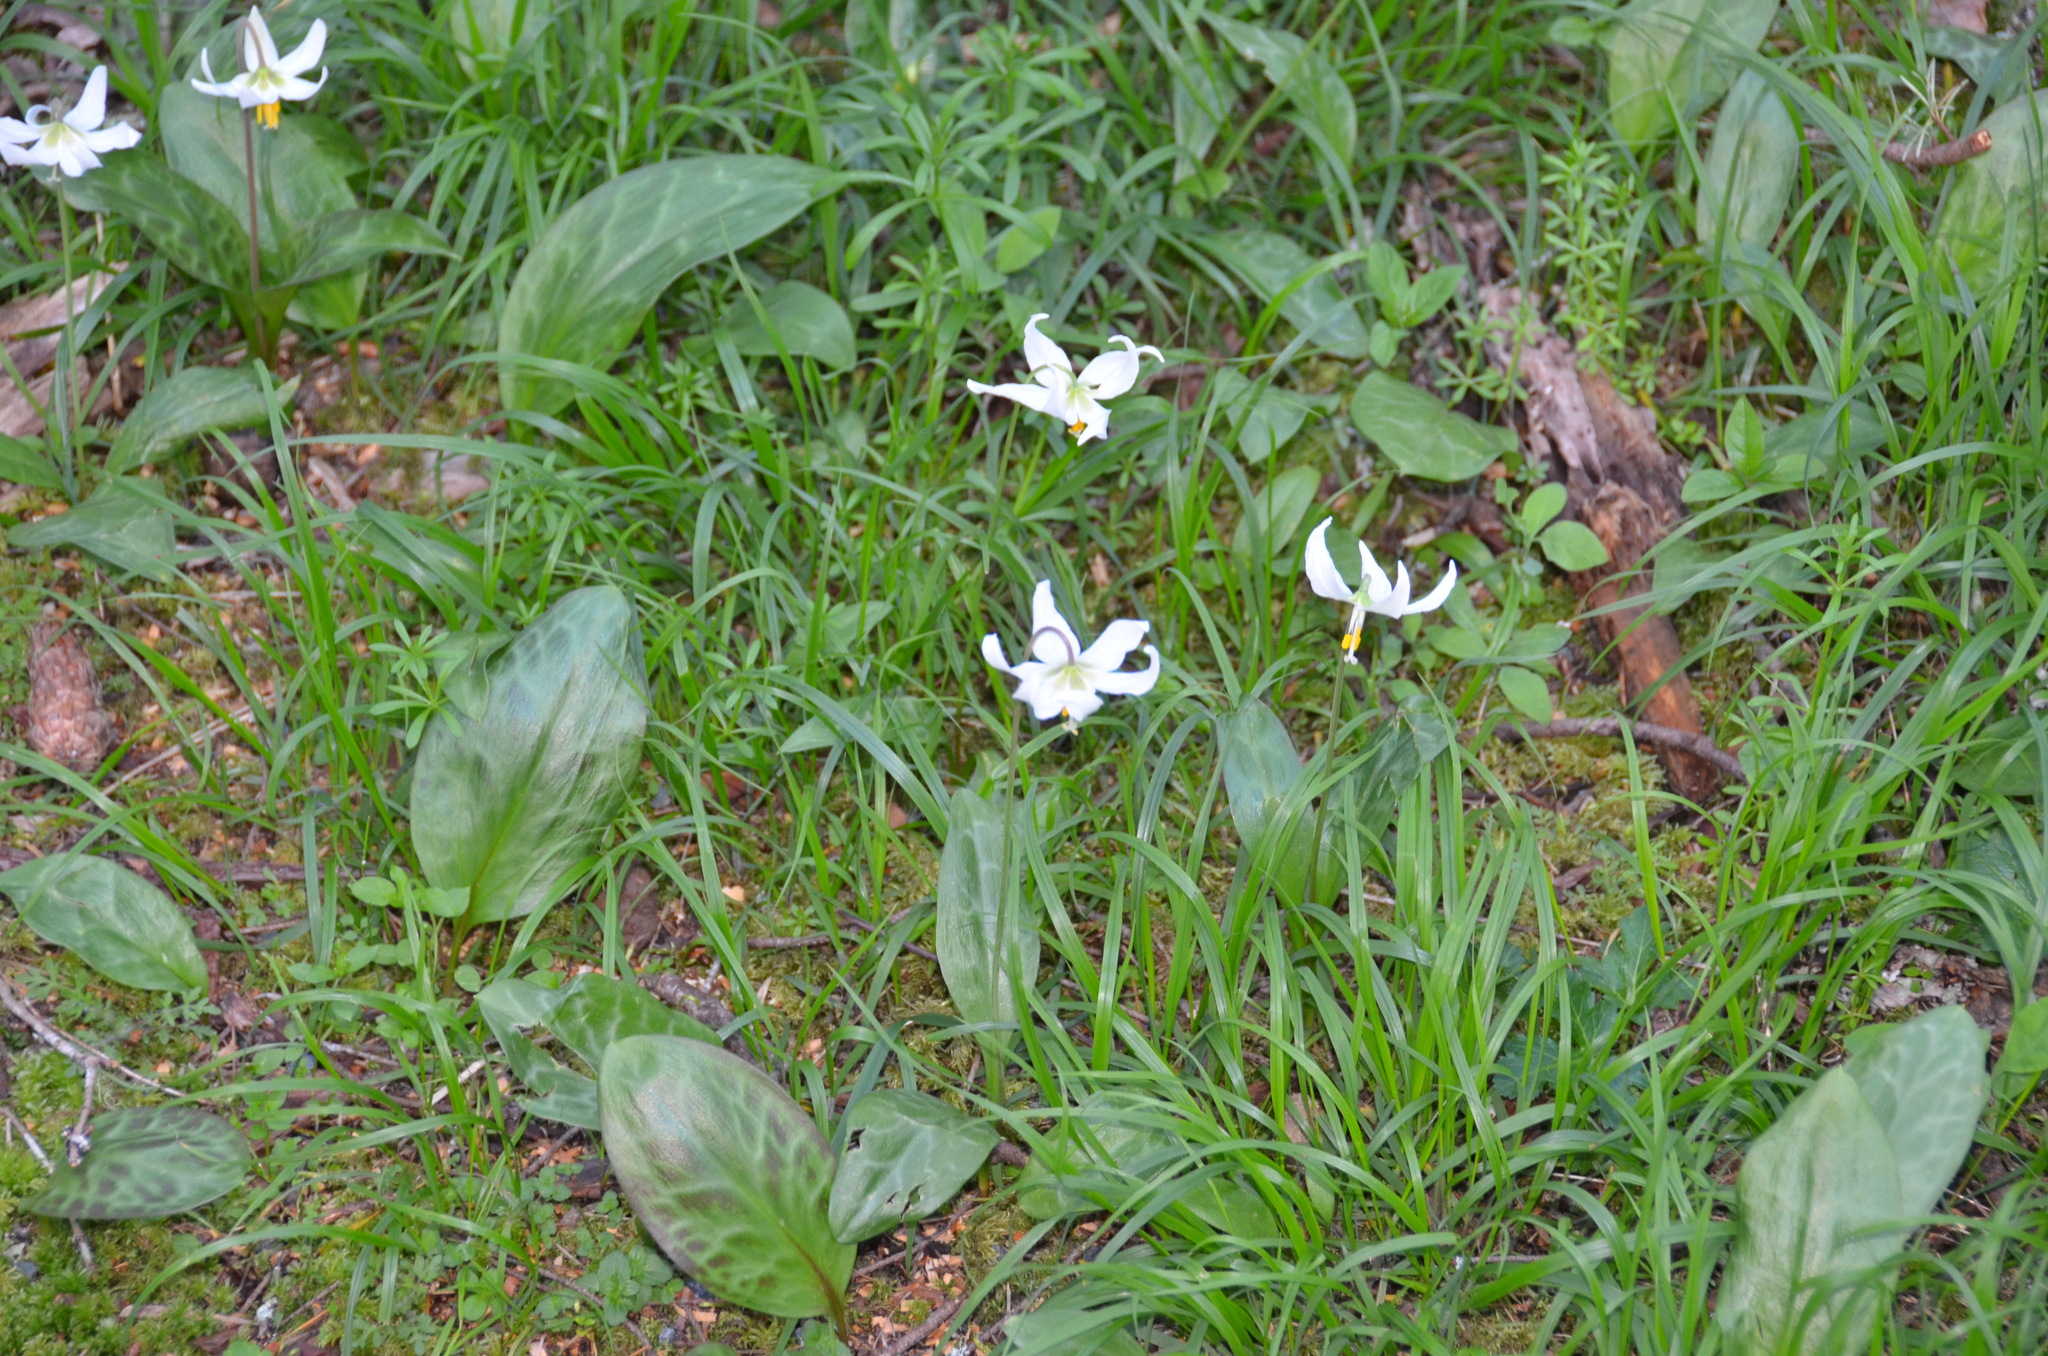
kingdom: Plantae
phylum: Tracheophyta
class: Liliopsida
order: Liliales
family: Liliaceae
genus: Erythronium
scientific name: Erythronium oregonum
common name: Giant adder's-tongue
